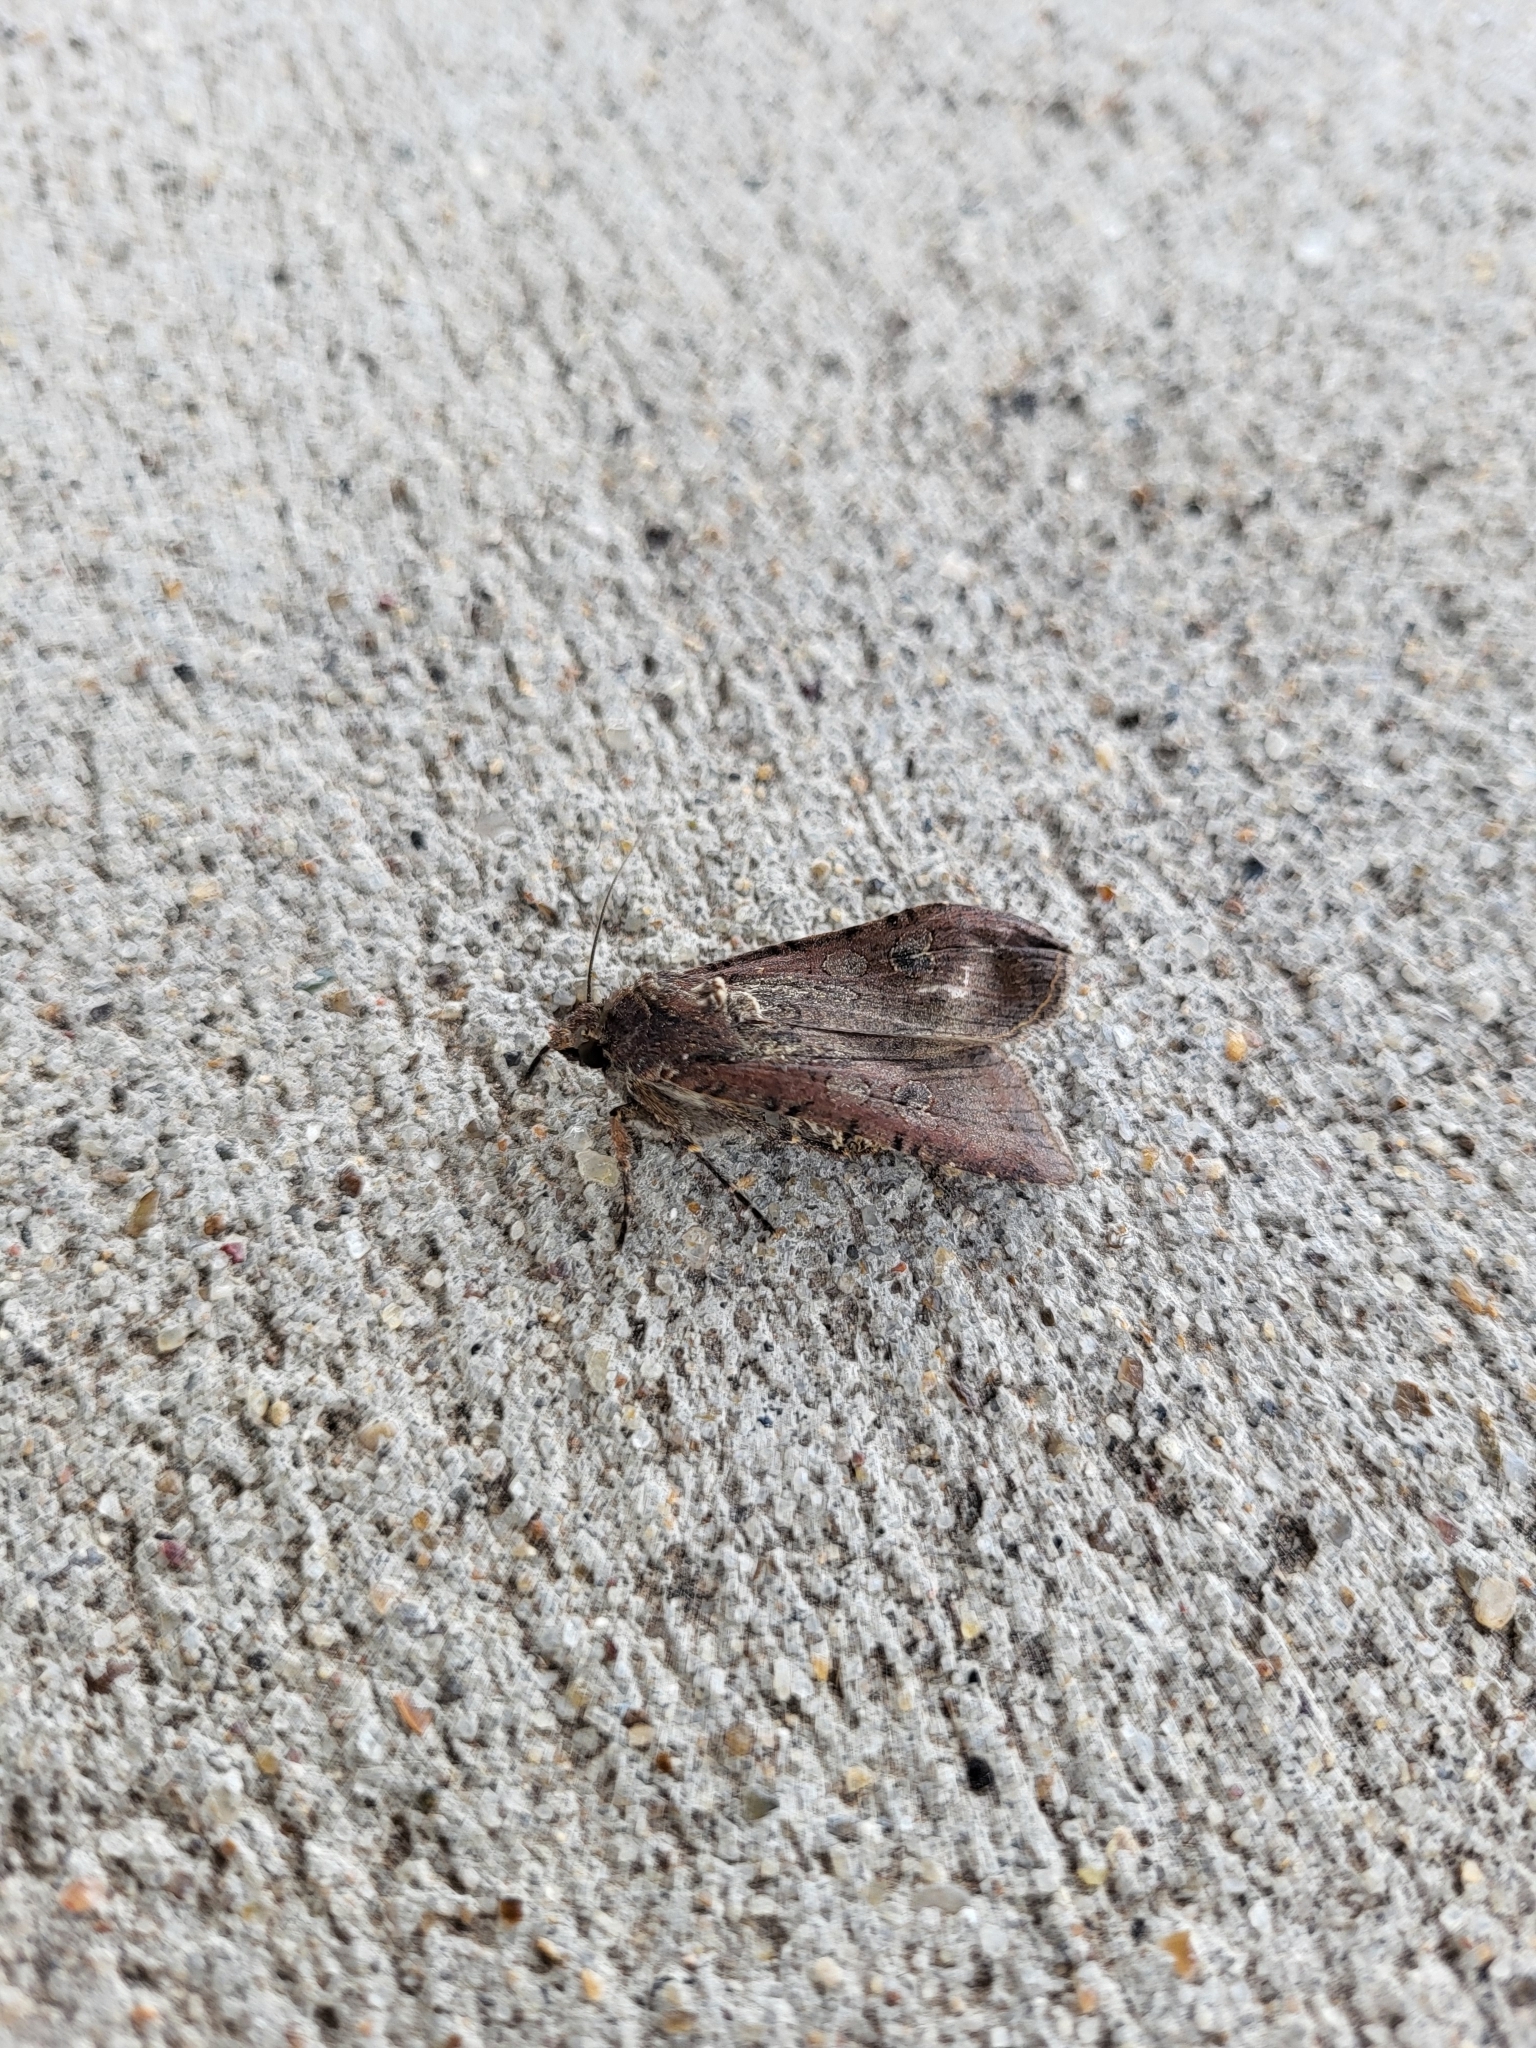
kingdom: Animalia
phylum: Arthropoda
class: Insecta
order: Lepidoptera
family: Noctuidae
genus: Peridroma
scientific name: Peridroma saucia
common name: Pearly underwing
